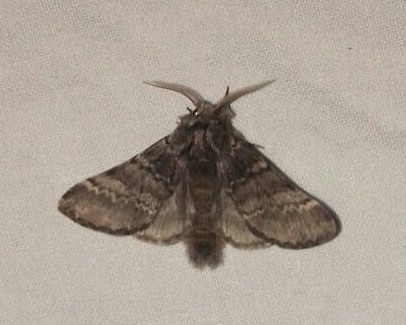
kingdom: Animalia
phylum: Arthropoda
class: Insecta
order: Lepidoptera
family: Notodontidae
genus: Drymonia
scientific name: Drymonia ruficornis
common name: Lunar marbled brown
